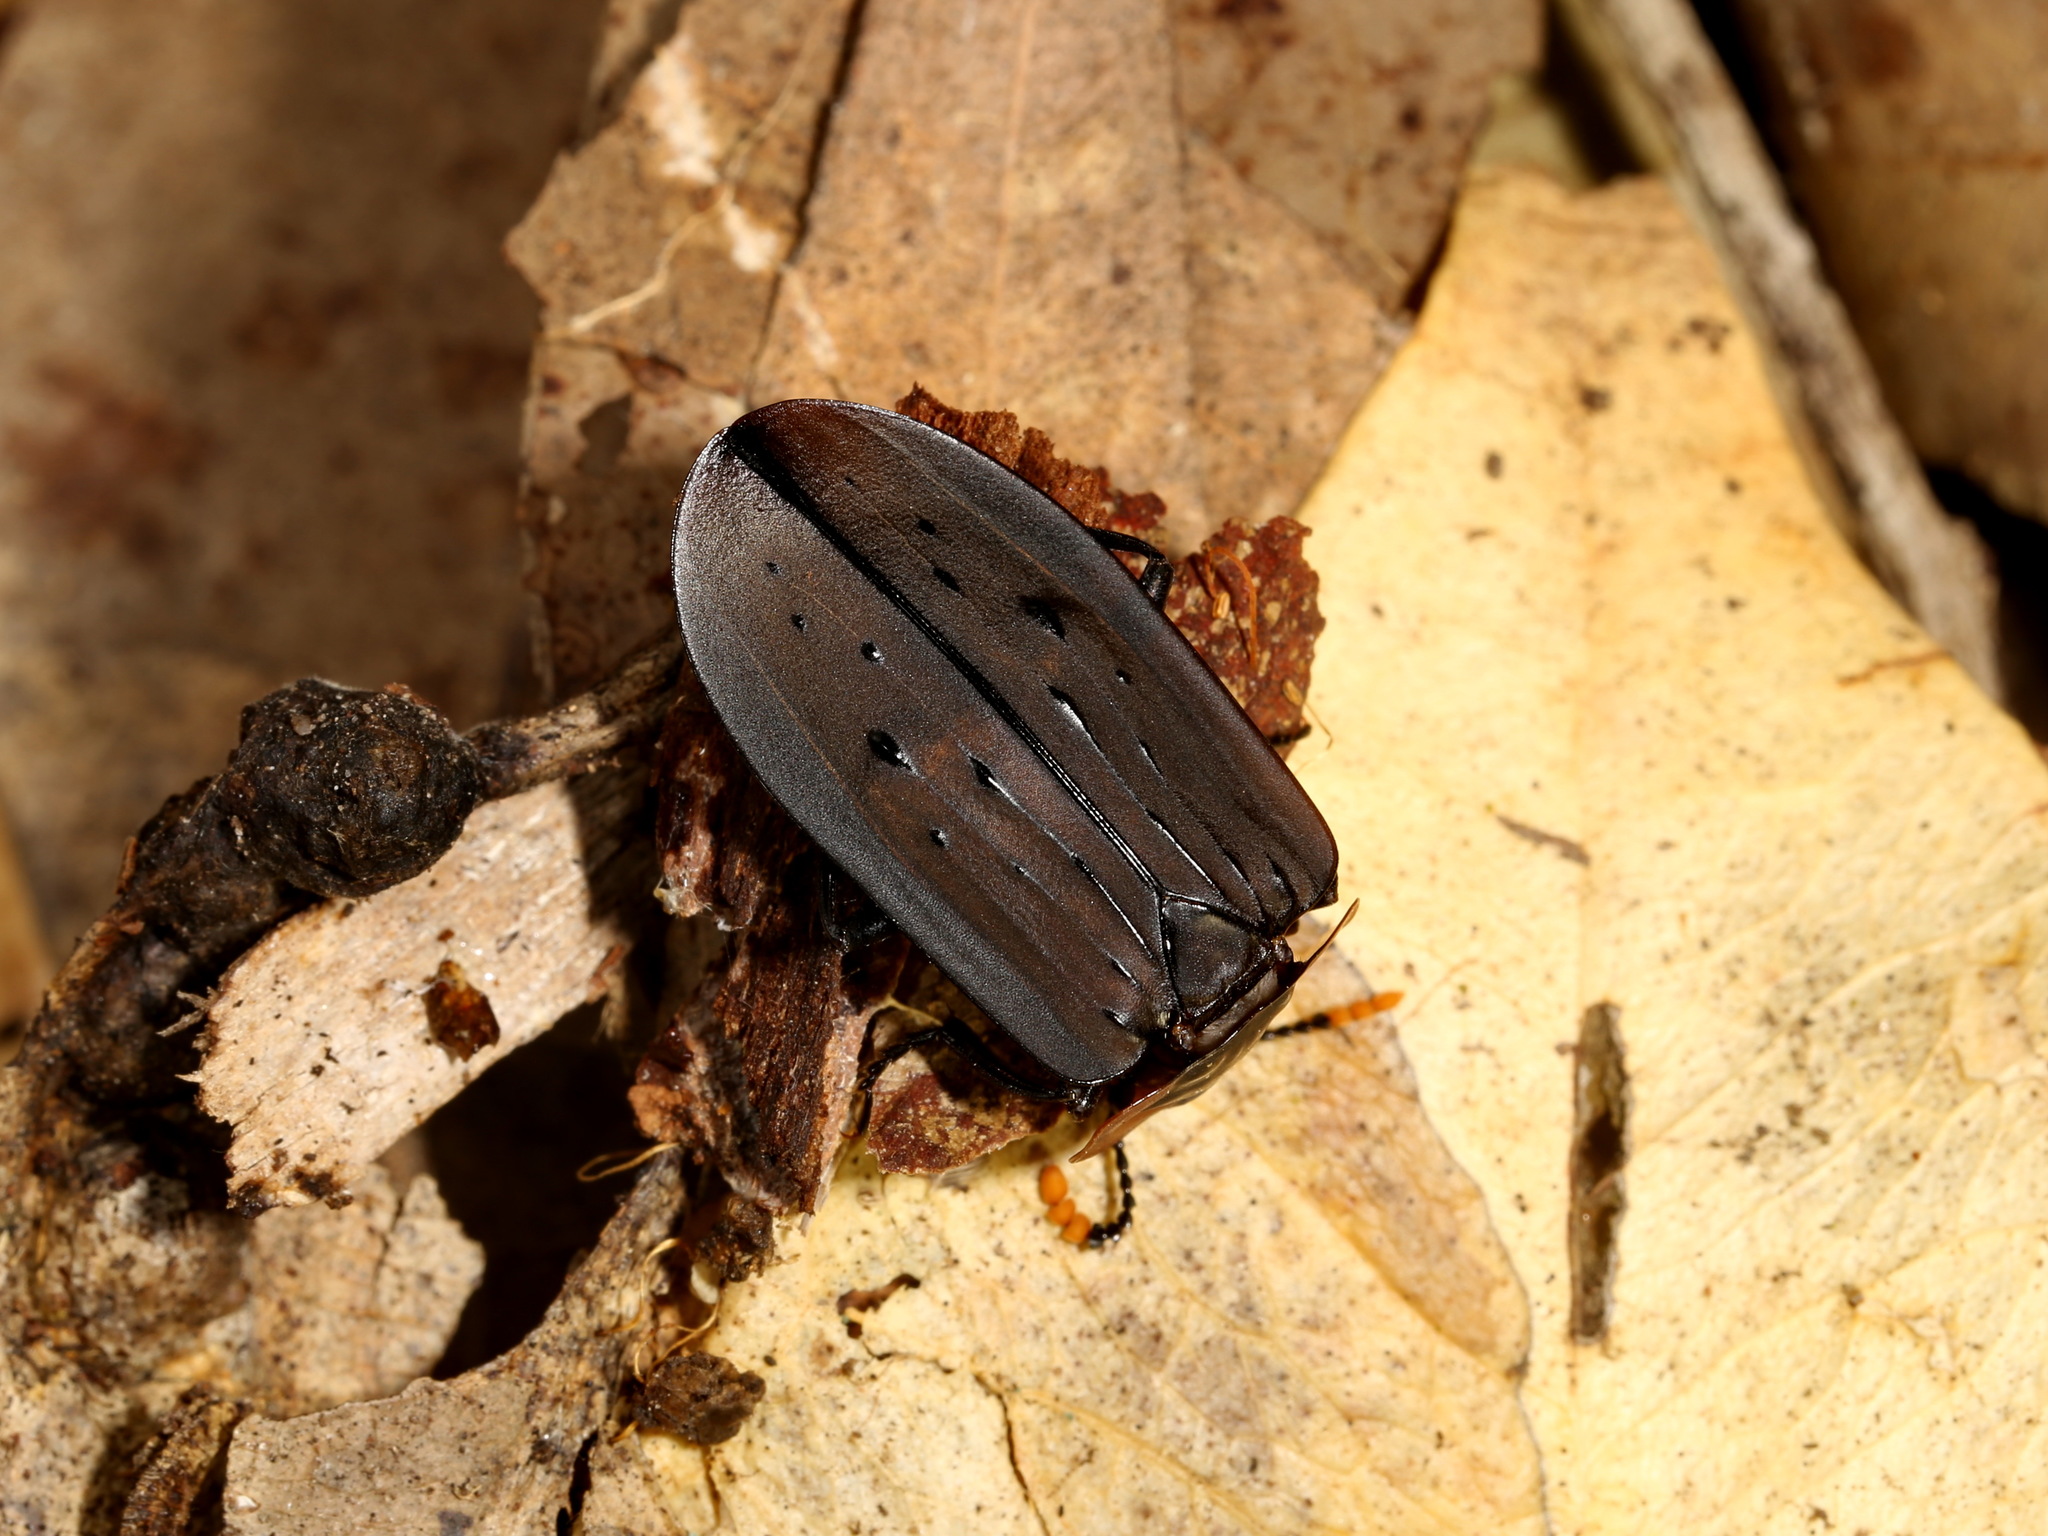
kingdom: Animalia
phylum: Arthropoda
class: Insecta
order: Coleoptera
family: Staphylinidae
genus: Ptomaphila
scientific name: Ptomaphila perlata
